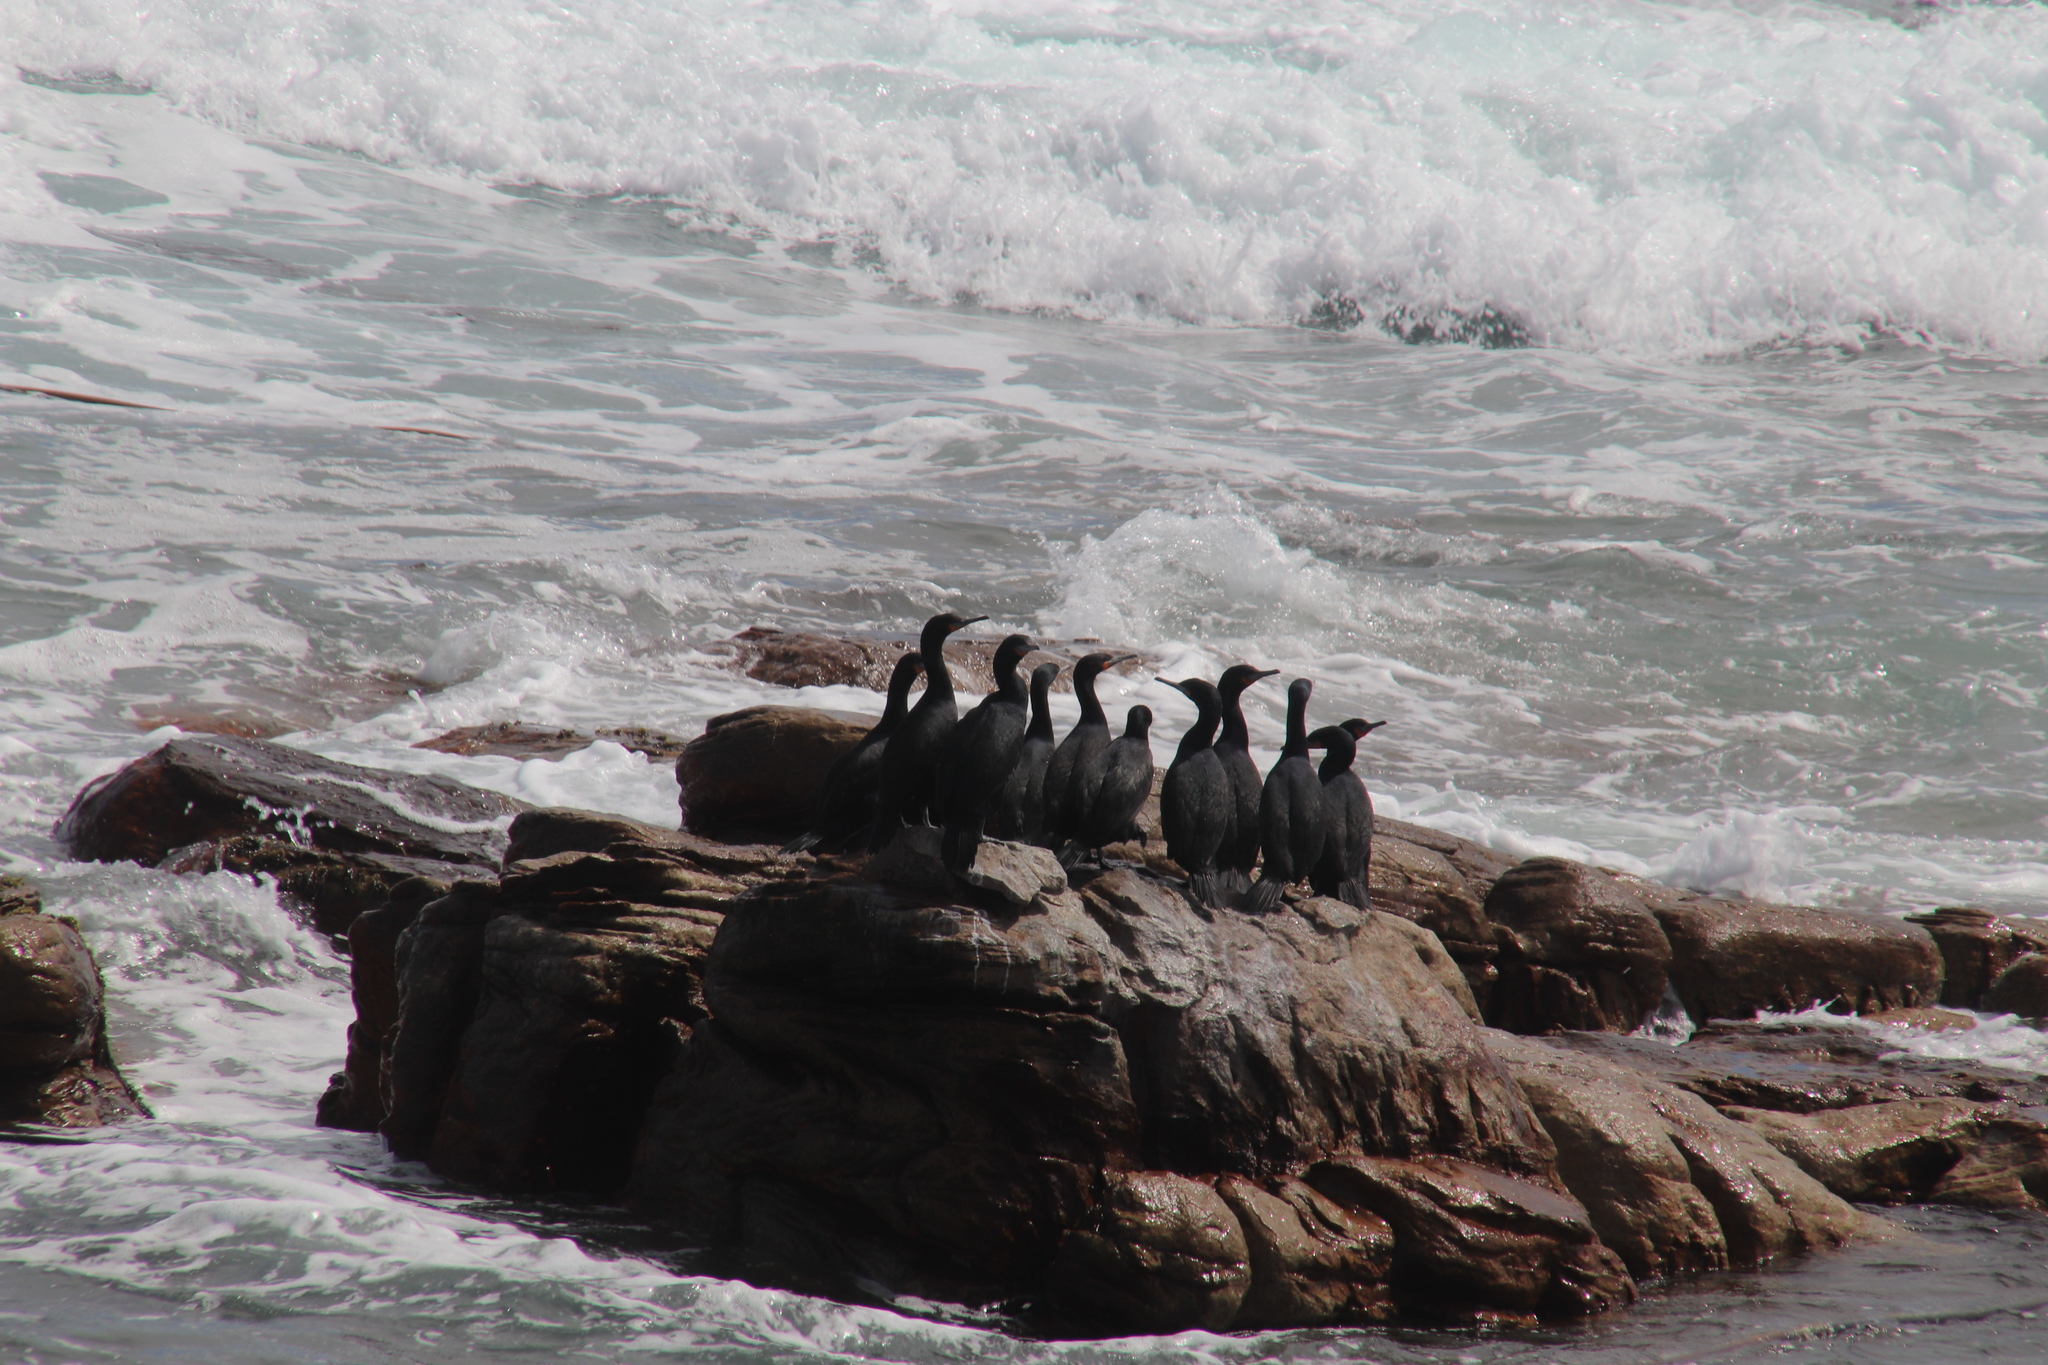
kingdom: Animalia
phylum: Chordata
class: Aves
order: Suliformes
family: Phalacrocoracidae
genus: Phalacrocorax
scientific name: Phalacrocorax capensis
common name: Cape cormorant
